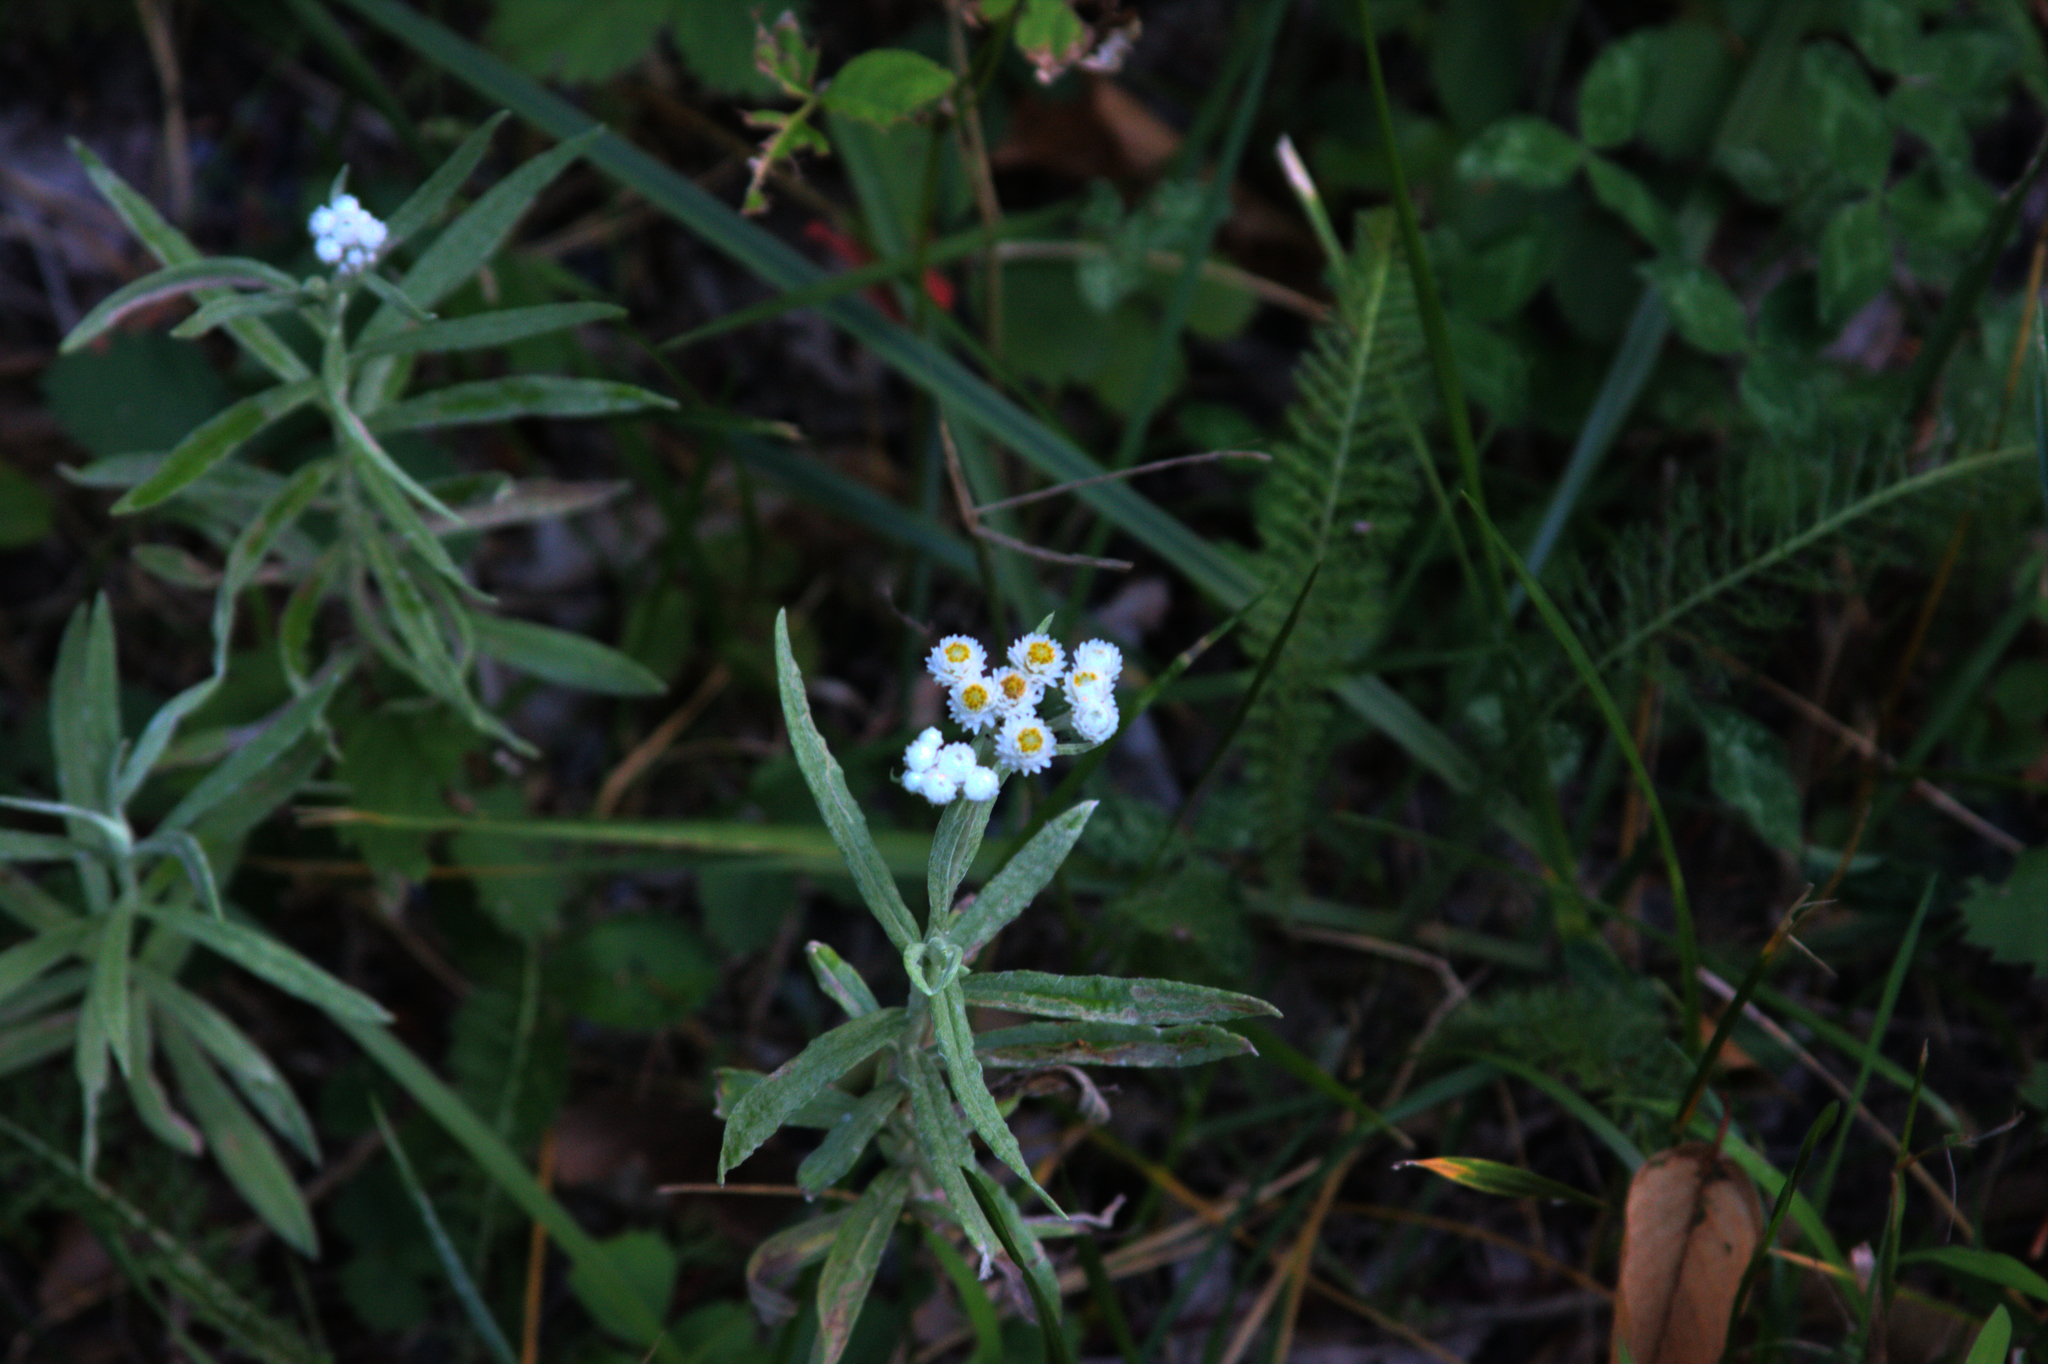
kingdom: Plantae
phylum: Tracheophyta
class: Magnoliopsida
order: Asterales
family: Asteraceae
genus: Anaphalis
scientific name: Anaphalis margaritacea
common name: Pearly everlasting
